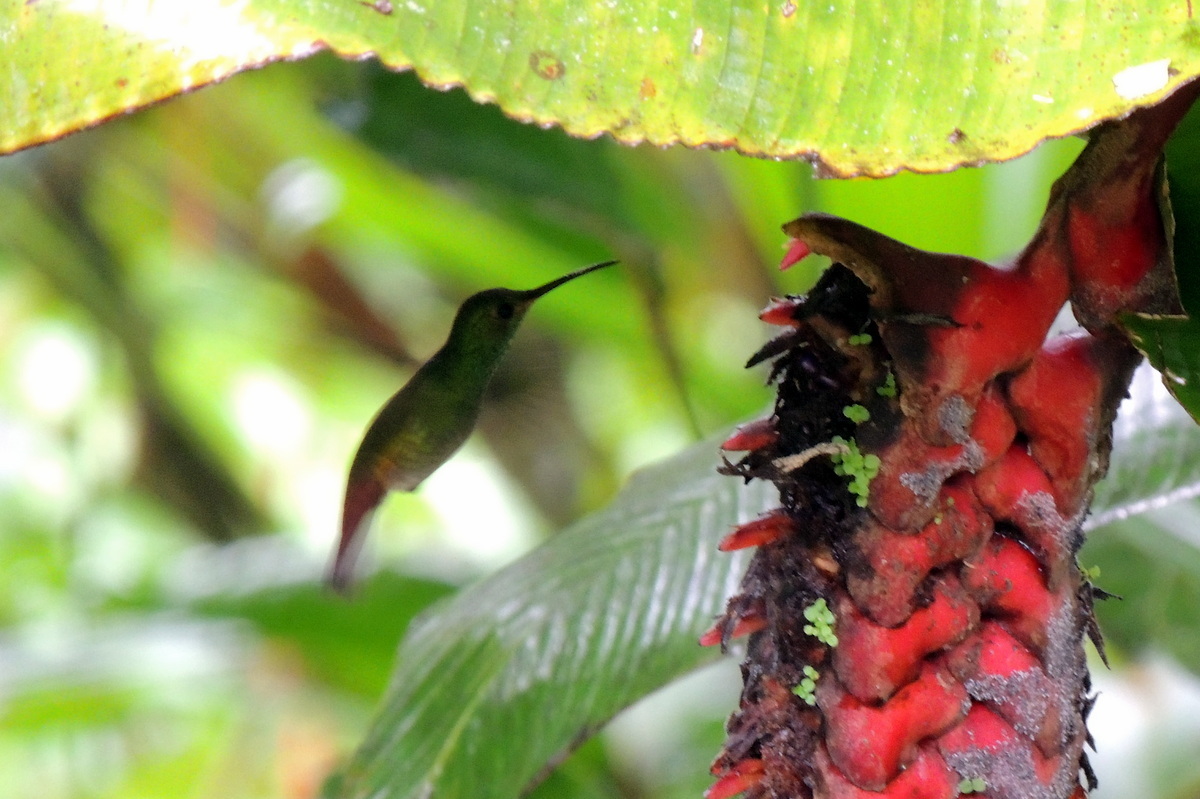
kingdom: Animalia
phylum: Chordata
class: Aves
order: Apodiformes
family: Trochilidae
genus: Amazilia
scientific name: Amazilia tzacatl
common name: Rufous-tailed hummingbird
